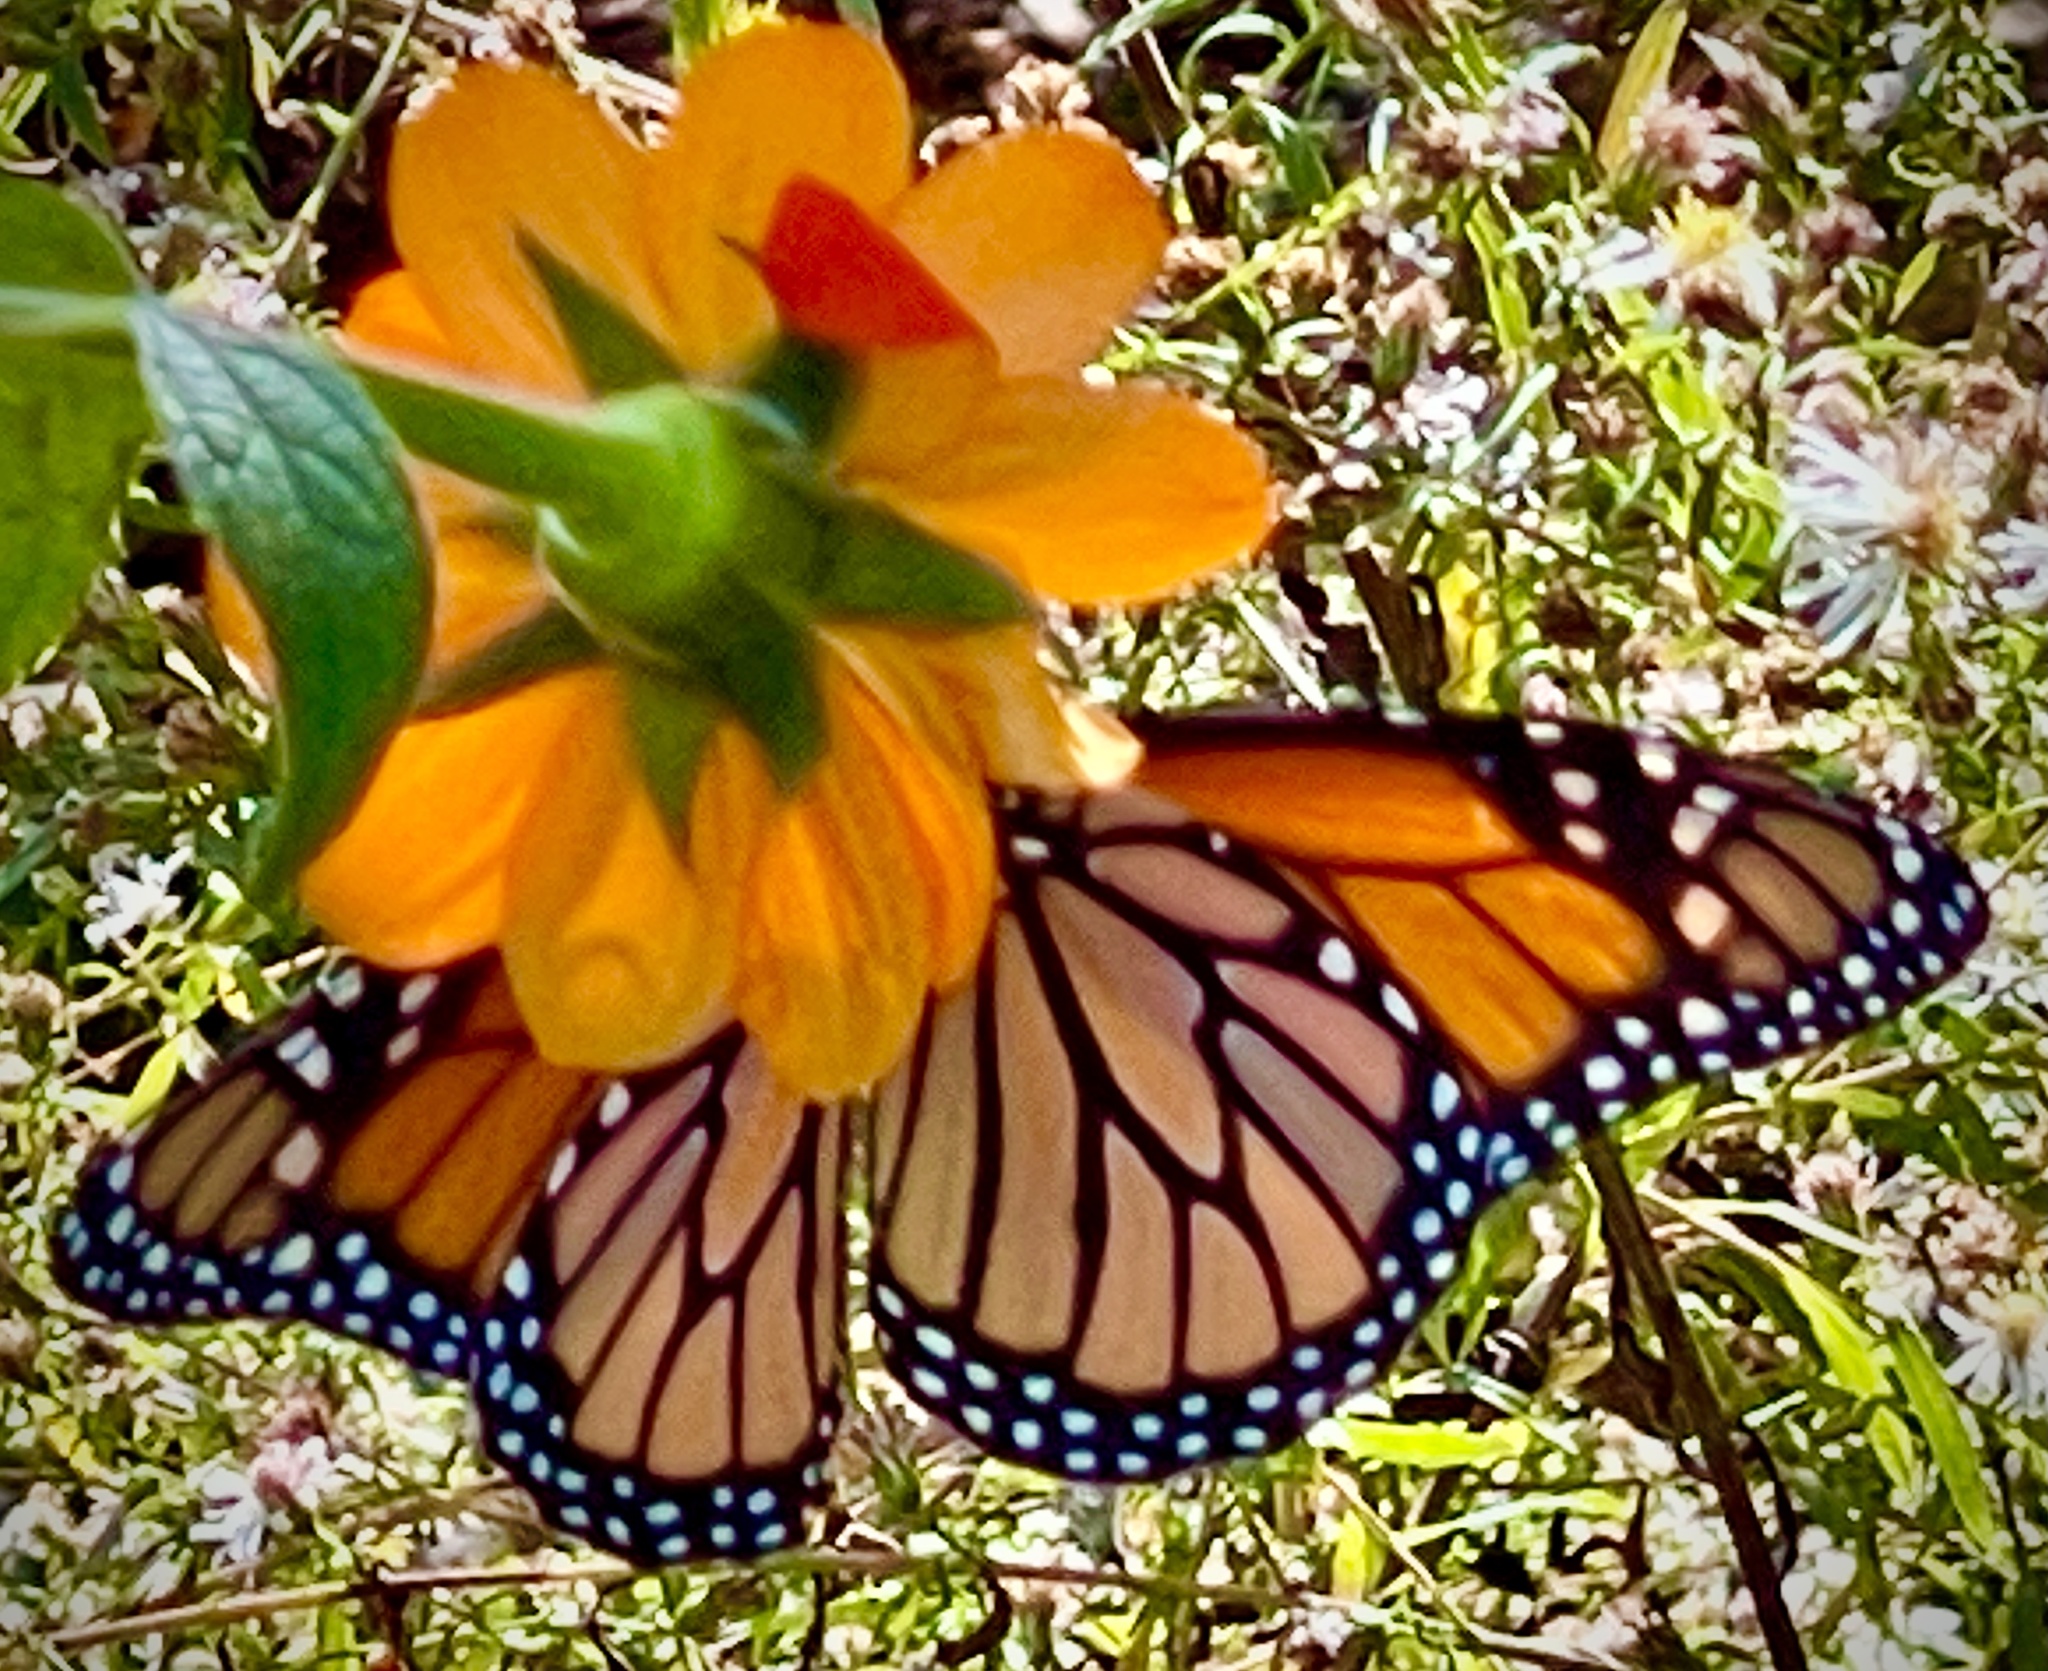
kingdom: Animalia
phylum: Arthropoda
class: Insecta
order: Lepidoptera
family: Nymphalidae
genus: Danaus
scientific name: Danaus plexippus
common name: Monarch
